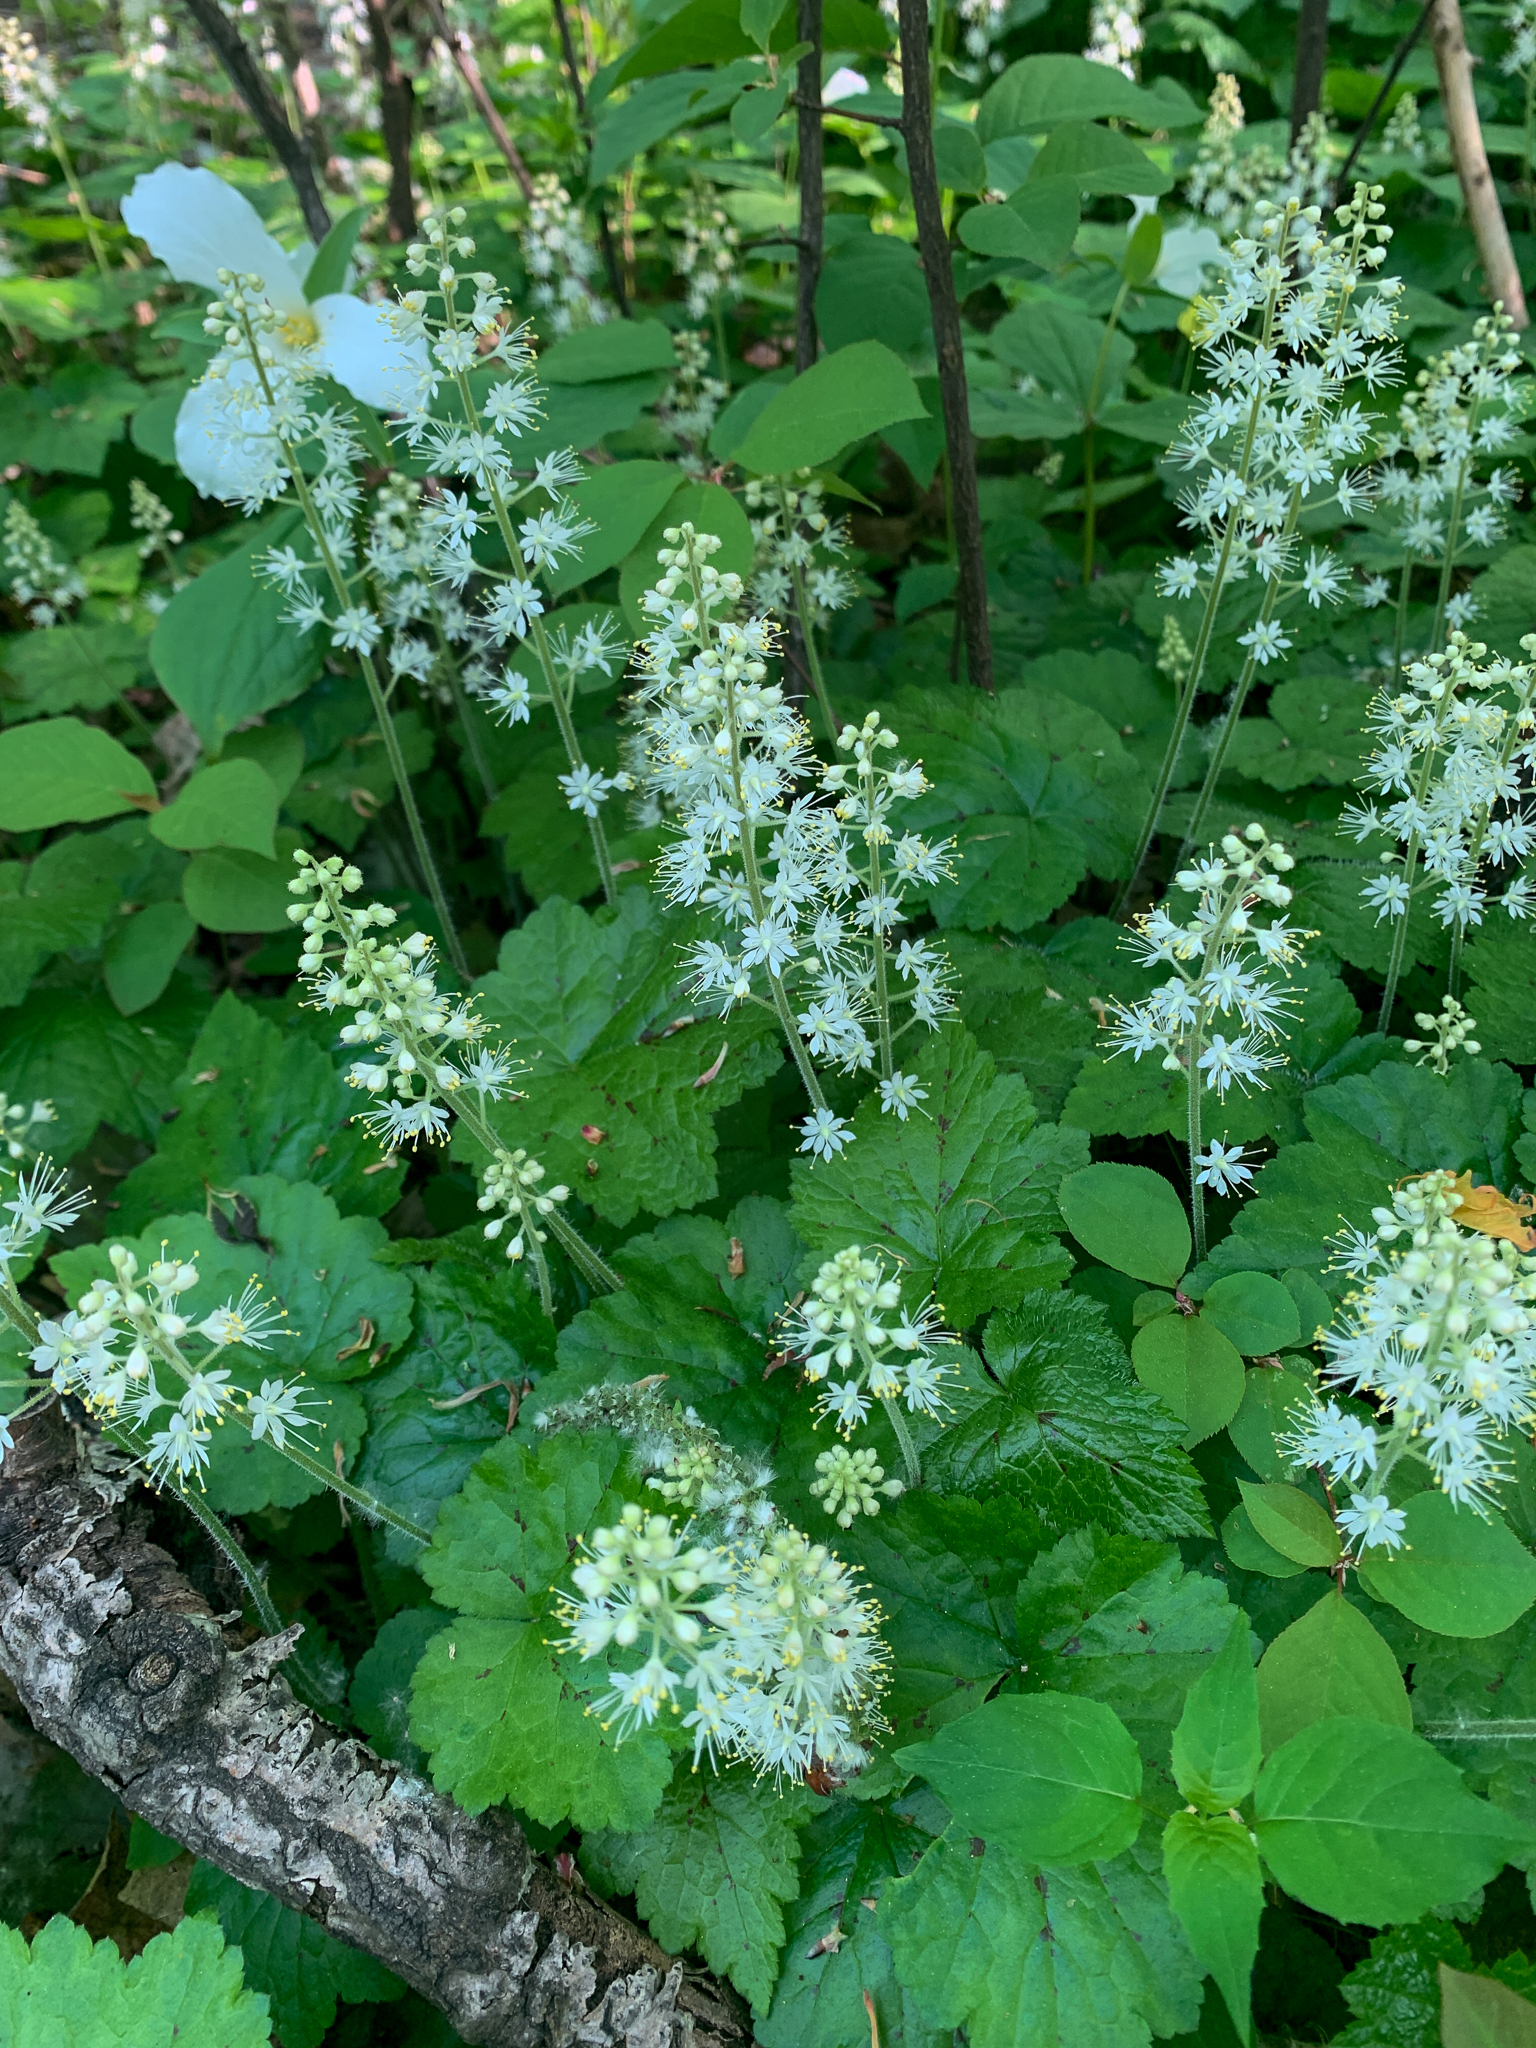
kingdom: Plantae
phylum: Tracheophyta
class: Magnoliopsida
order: Saxifragales
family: Saxifragaceae
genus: Tiarella
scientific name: Tiarella stolonifera
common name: Stoloniferous foamflower
